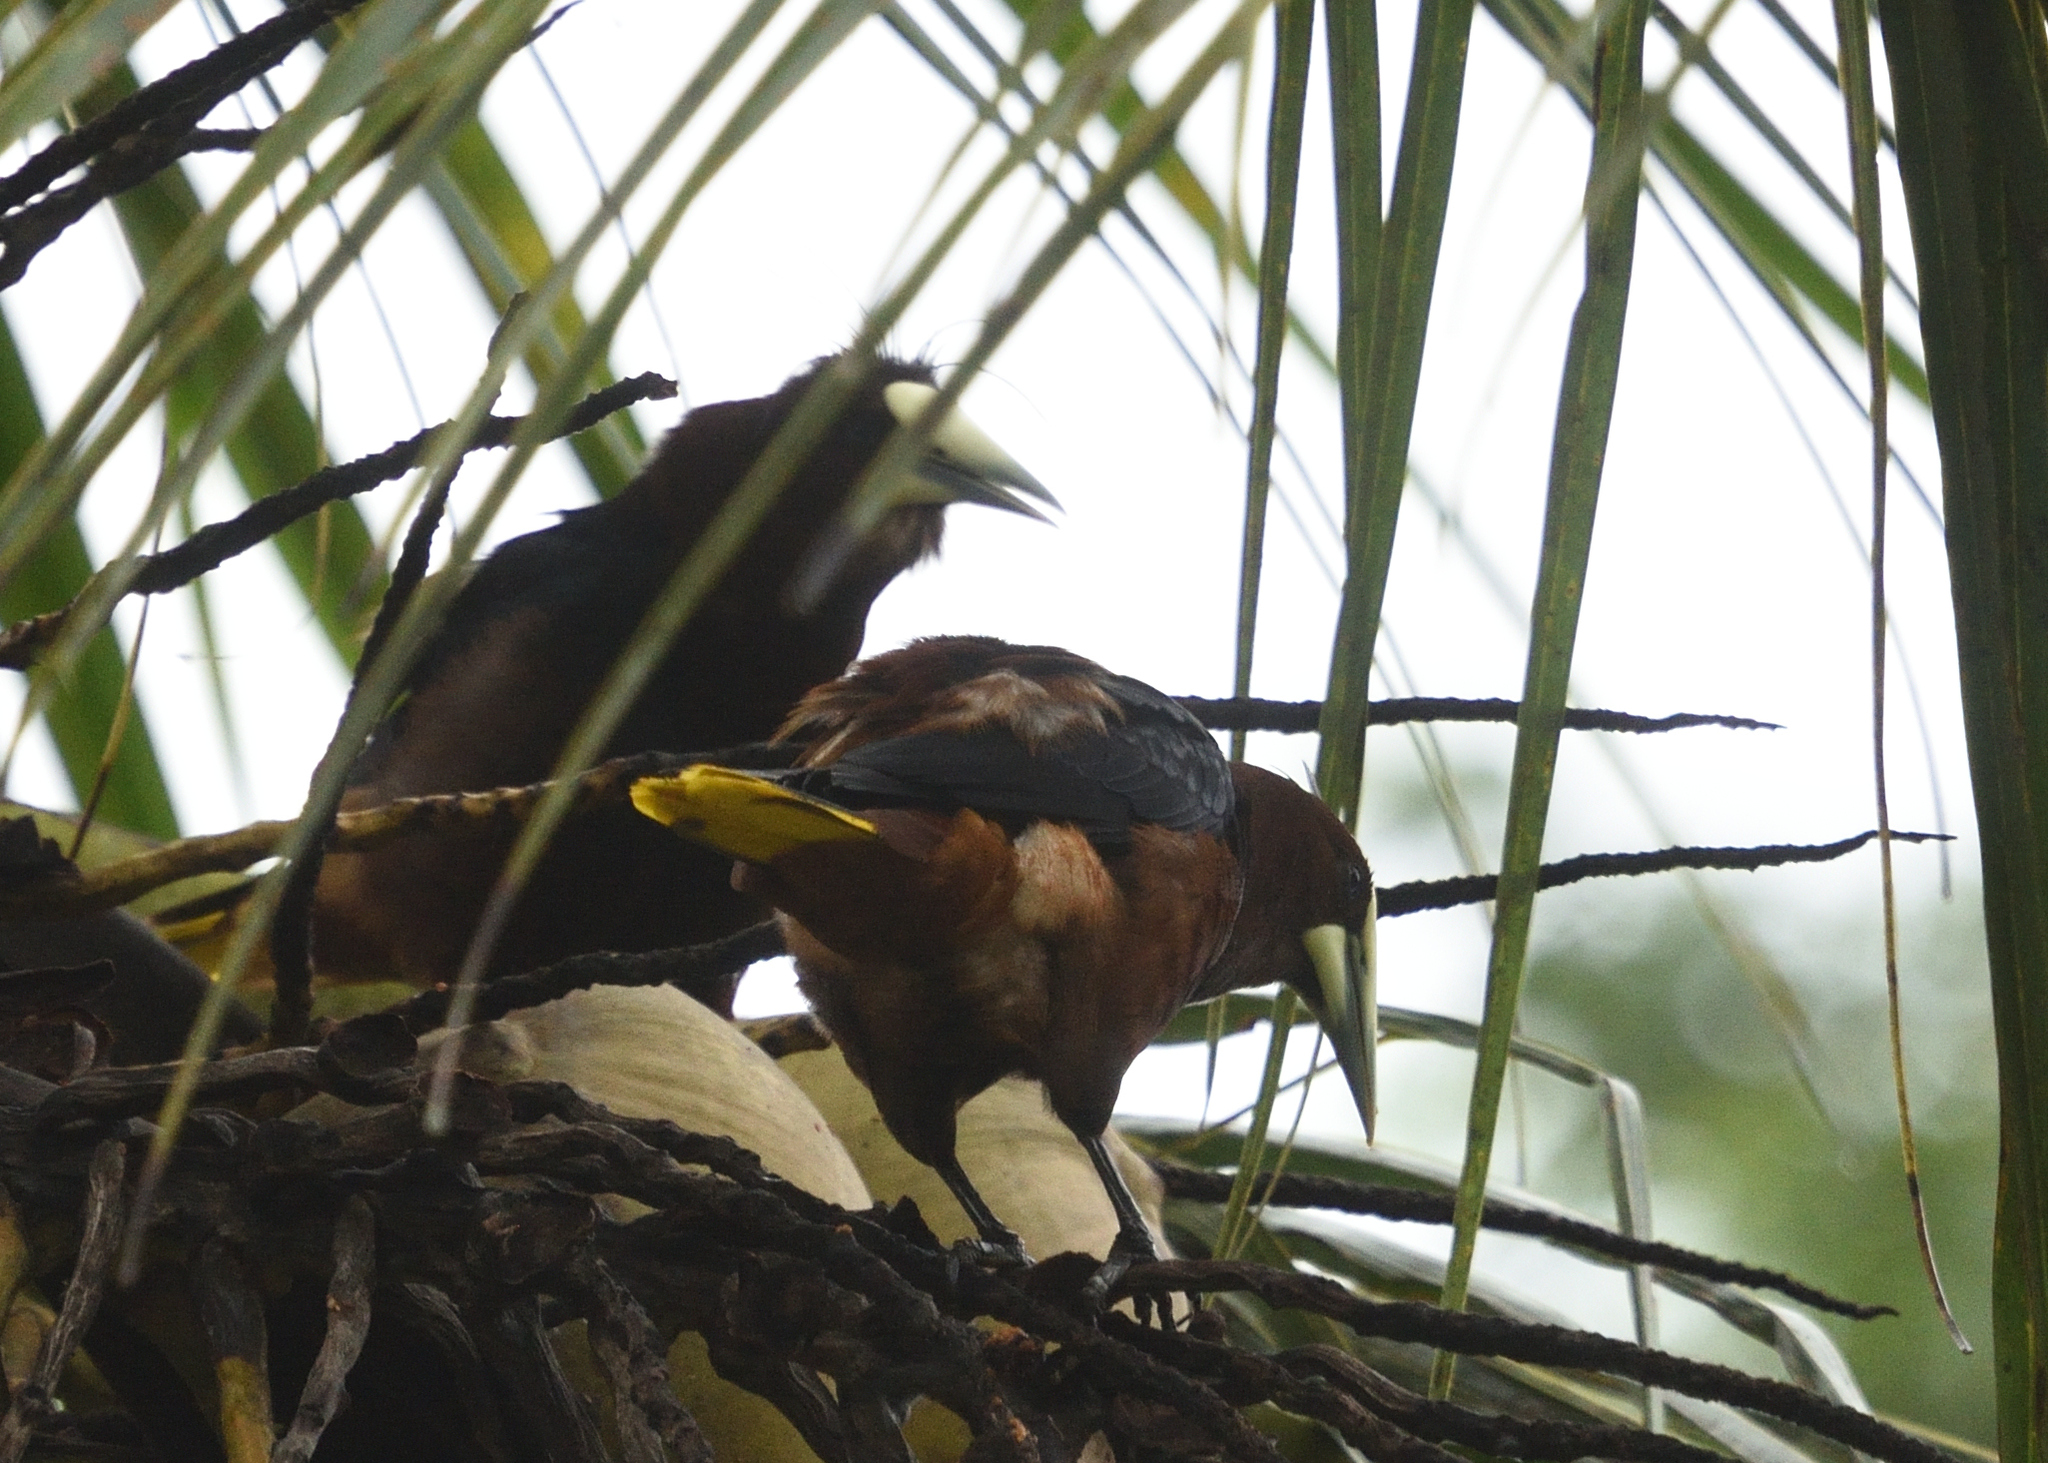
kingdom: Animalia
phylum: Chordata
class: Aves
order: Passeriformes
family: Icteridae
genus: Psarocolius
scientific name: Psarocolius wagleri
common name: Chestnut-headed oropendola
